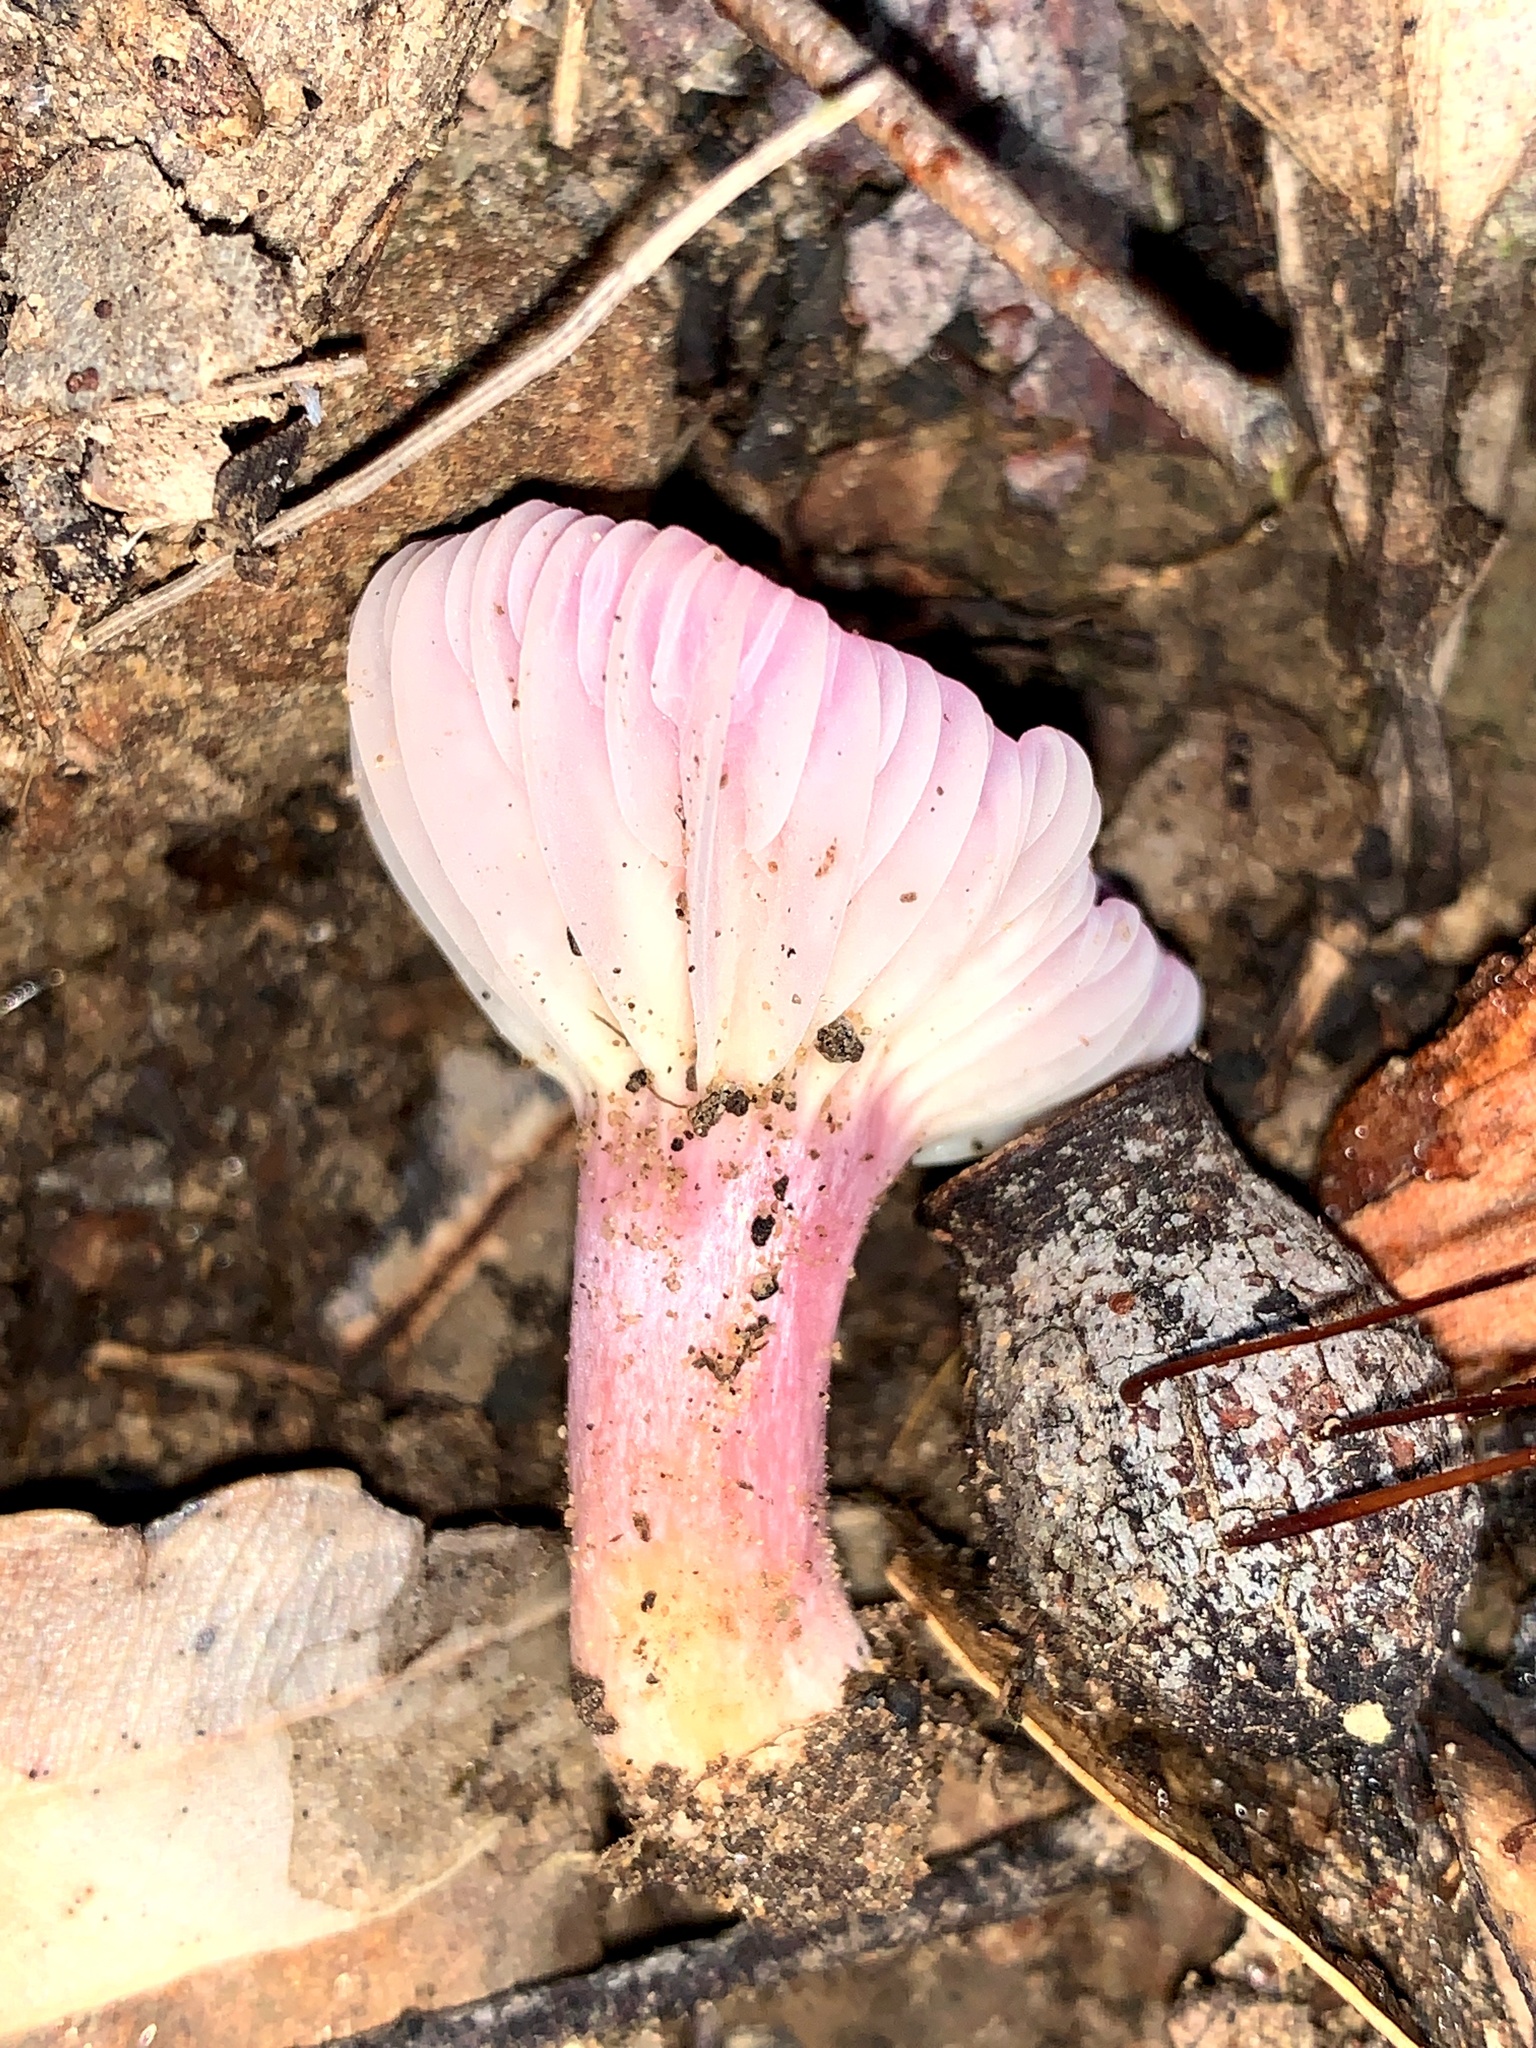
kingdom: Fungi
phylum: Basidiomycota
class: Agaricomycetes
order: Agaricales
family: Hygrophoraceae
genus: Cuphophyllus
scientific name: Cuphophyllus
